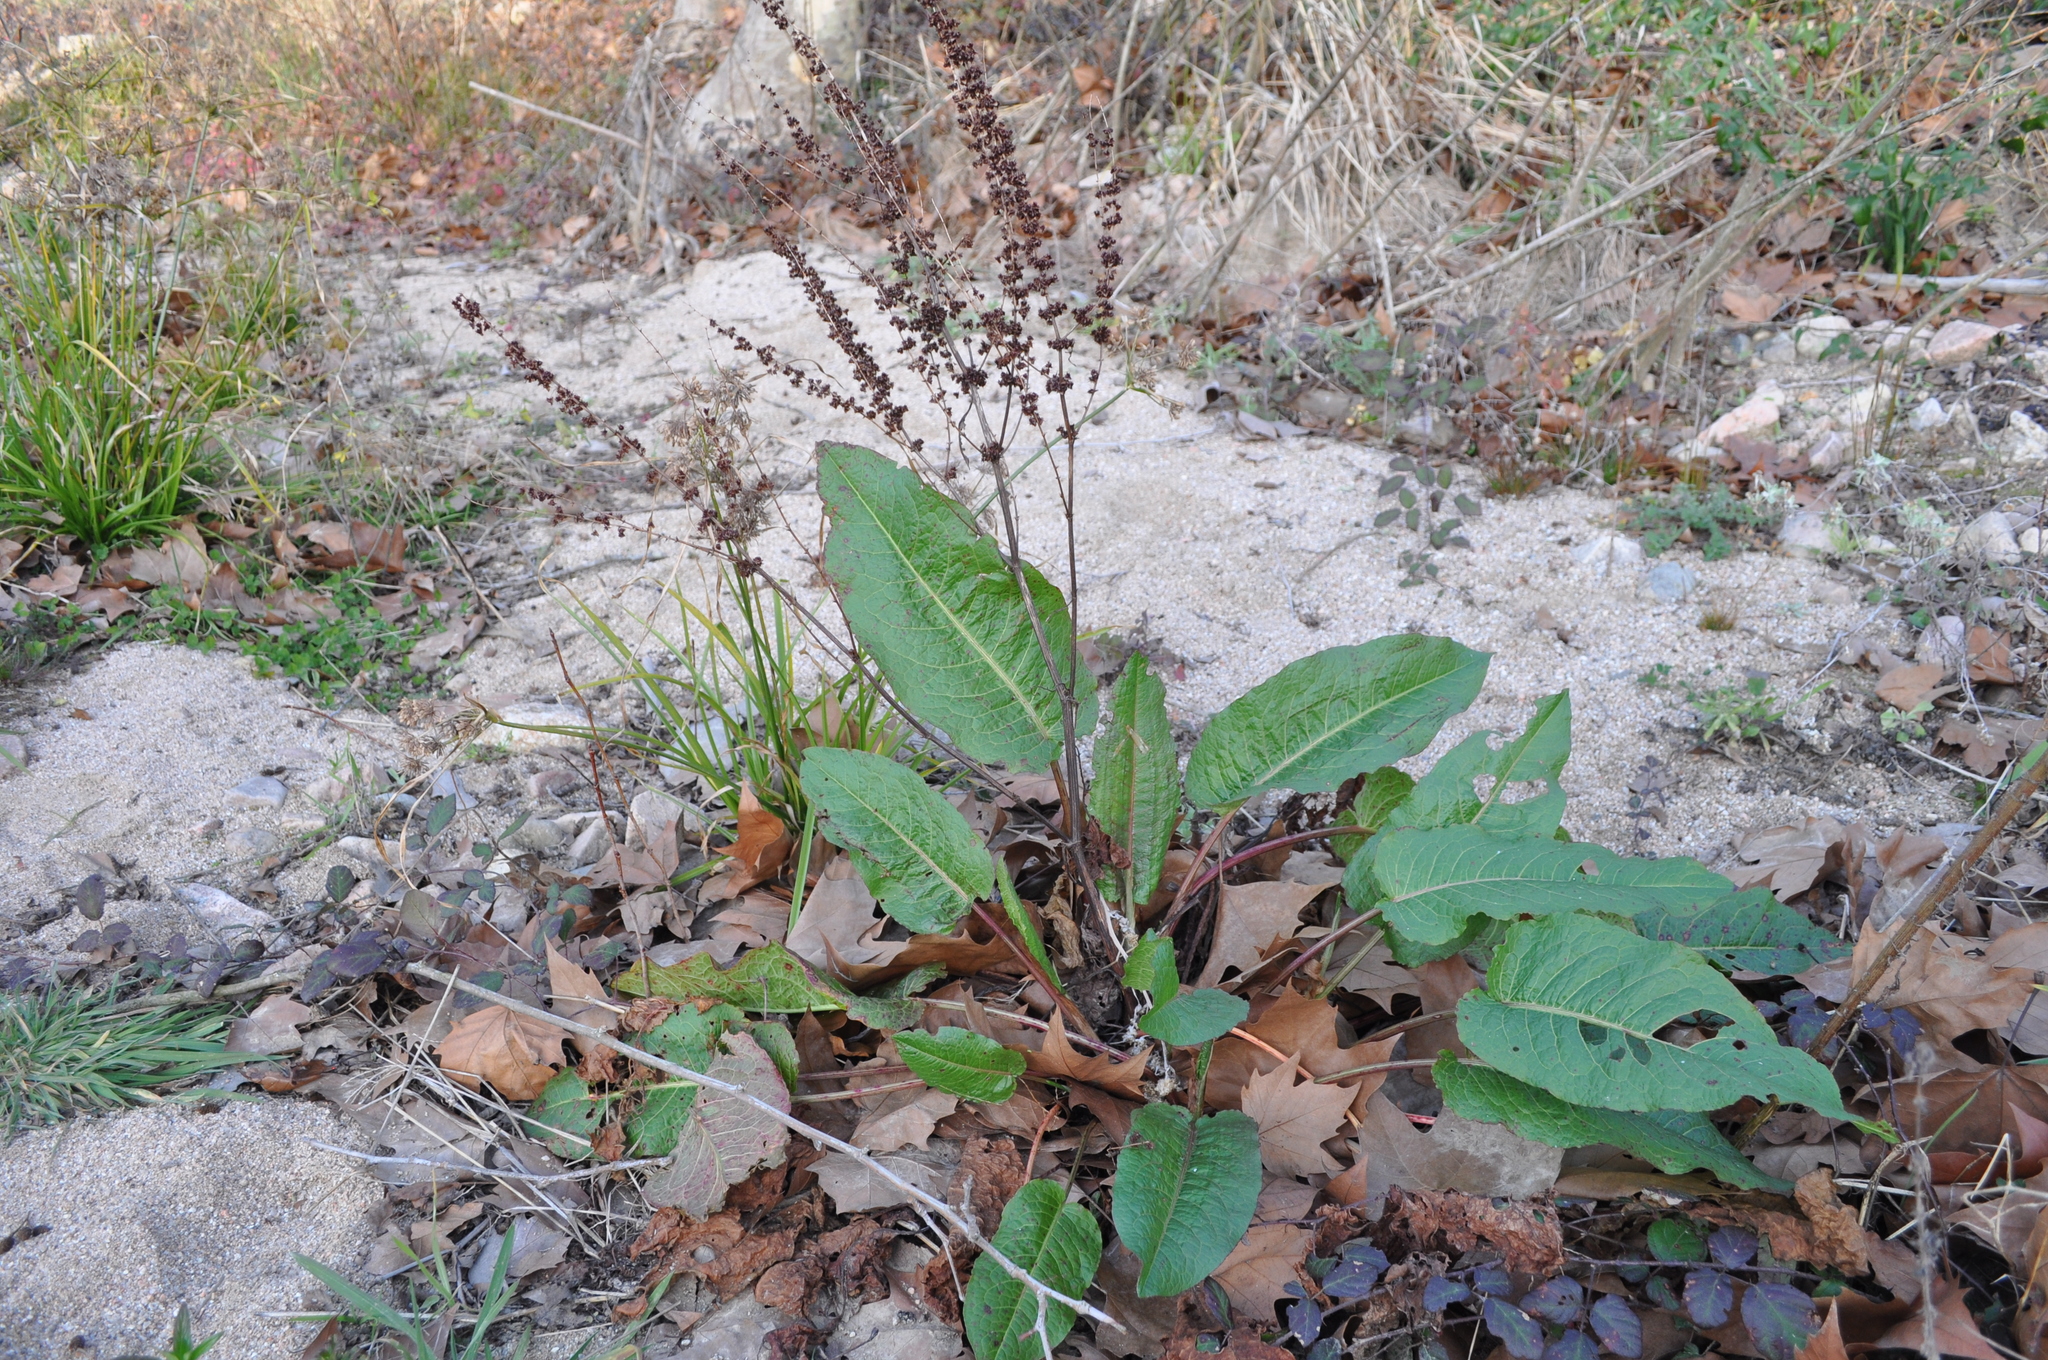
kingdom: Plantae
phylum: Tracheophyta
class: Magnoliopsida
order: Caryophyllales
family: Polygonaceae
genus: Rumex
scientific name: Rumex obtusifolius
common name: Bitter dock
